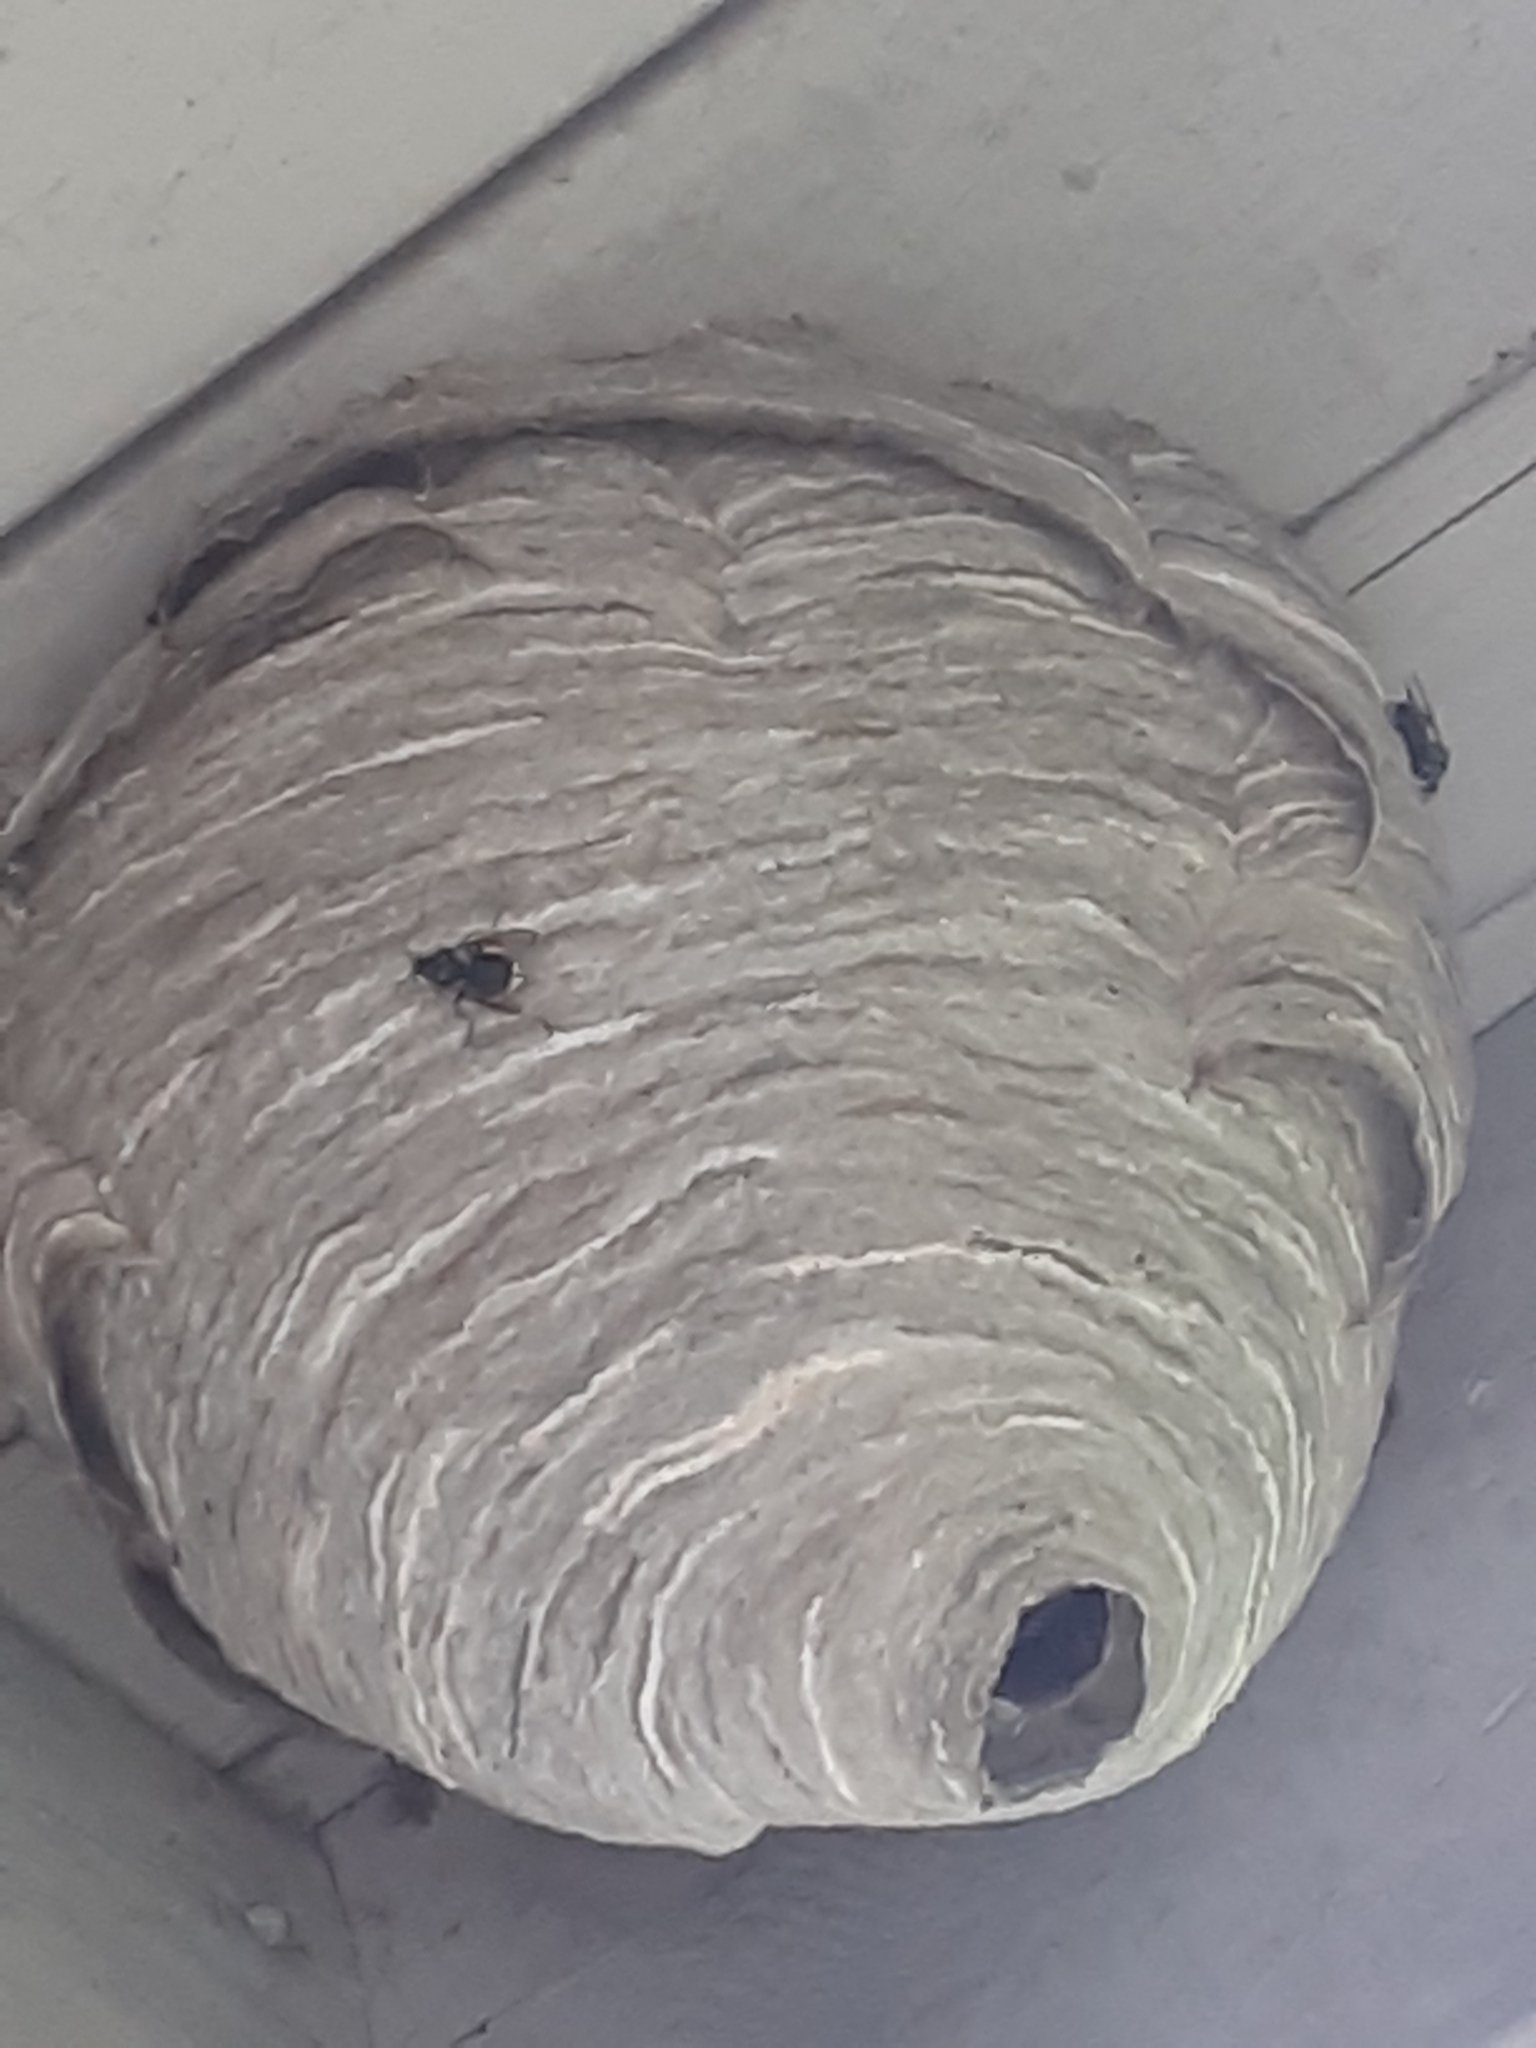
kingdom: Animalia
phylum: Arthropoda
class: Insecta
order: Hymenoptera
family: Vespidae
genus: Dolichovespula
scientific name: Dolichovespula maculata
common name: Bald-faced hornet
